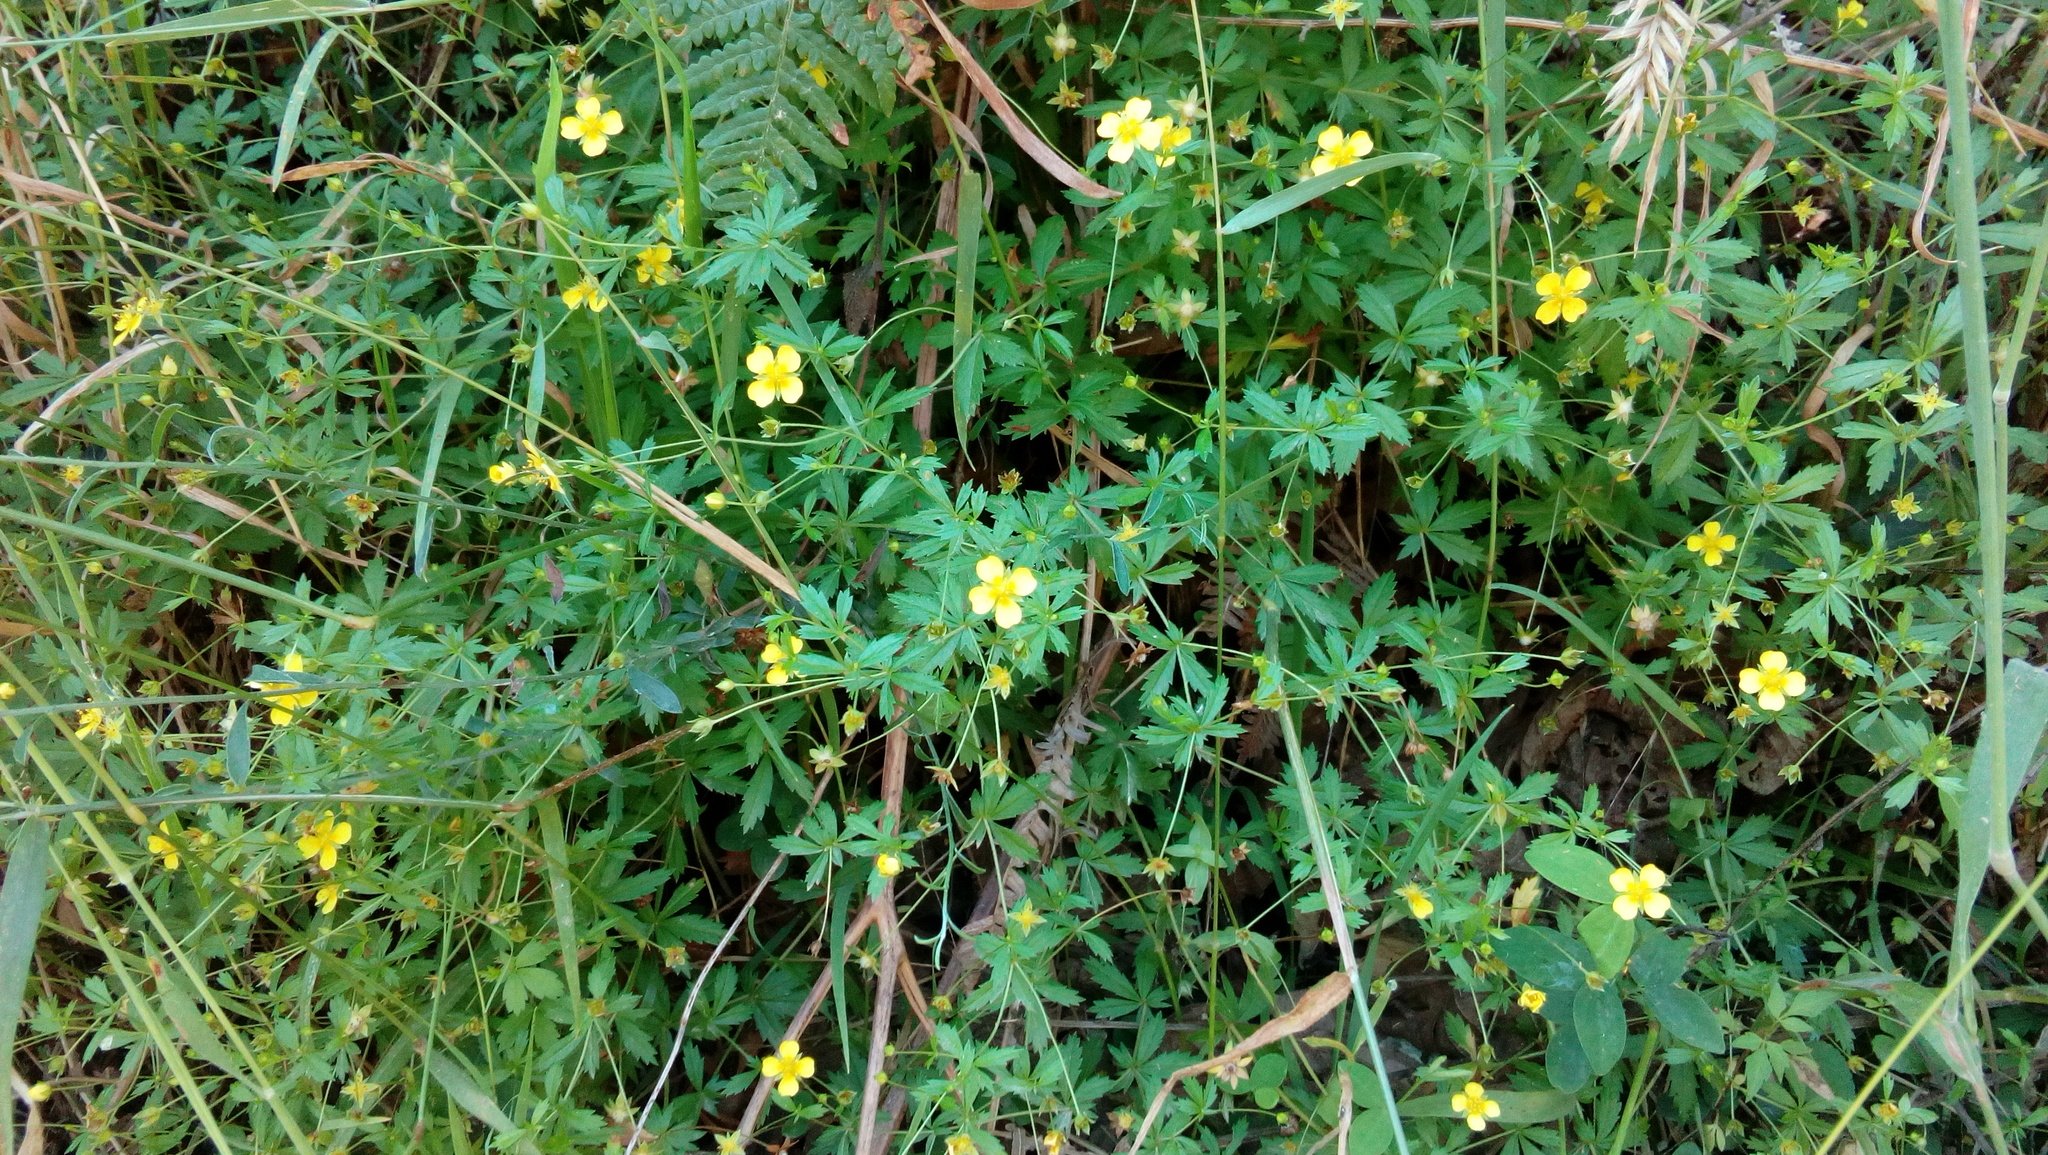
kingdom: Plantae
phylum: Tracheophyta
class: Magnoliopsida
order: Rosales
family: Rosaceae
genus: Potentilla
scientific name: Potentilla erecta
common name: Tormentil
